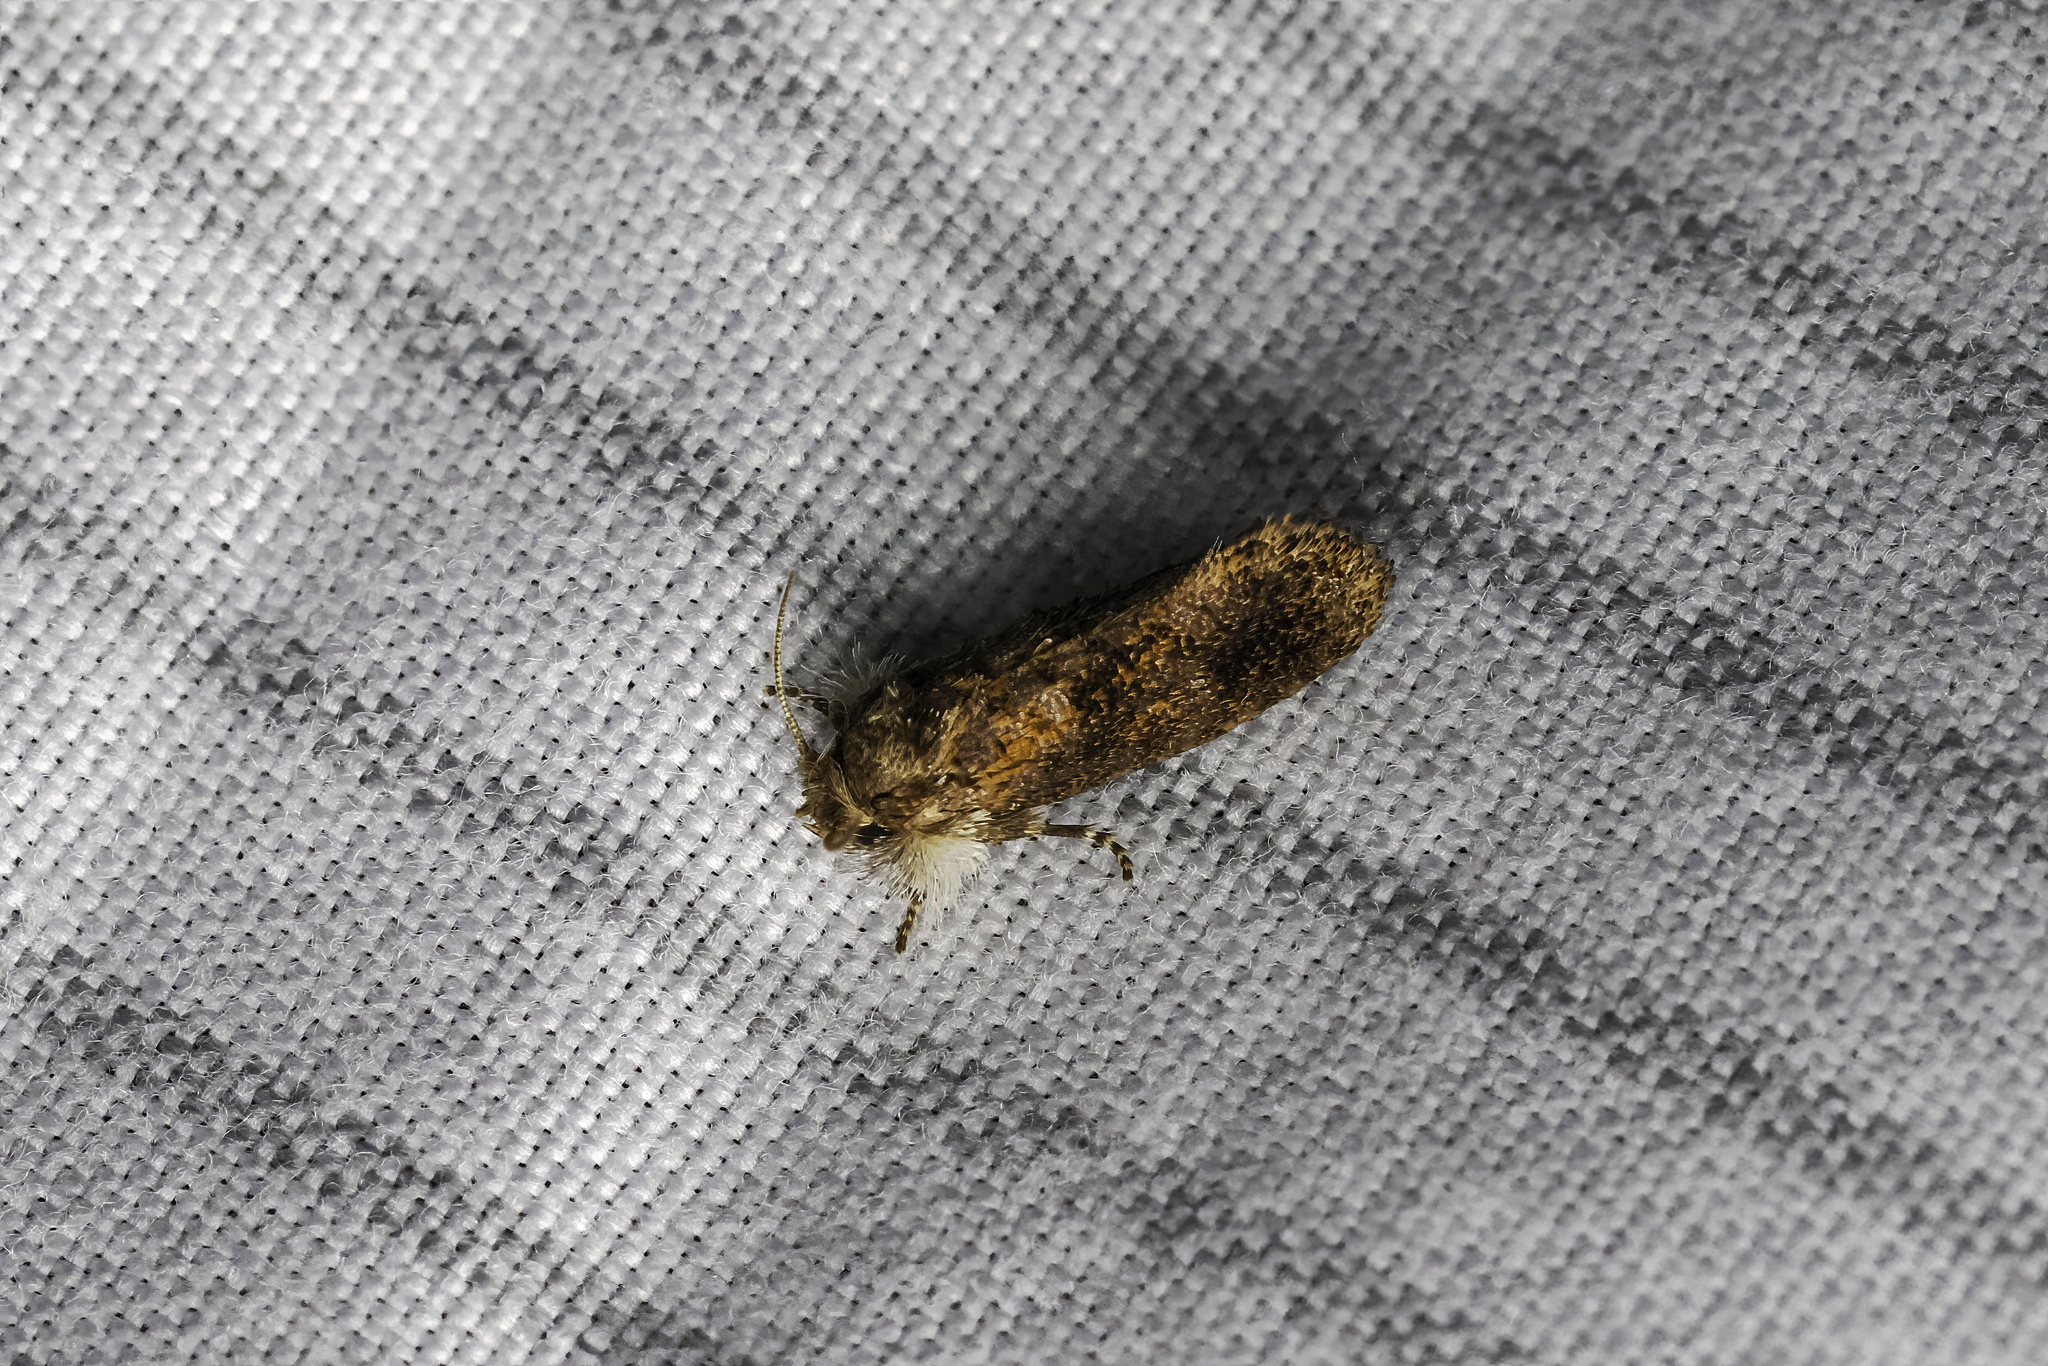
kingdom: Animalia
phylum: Arthropoda
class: Insecta
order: Lepidoptera
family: Tineidae
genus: Acrolophus
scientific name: Acrolophus panamae
